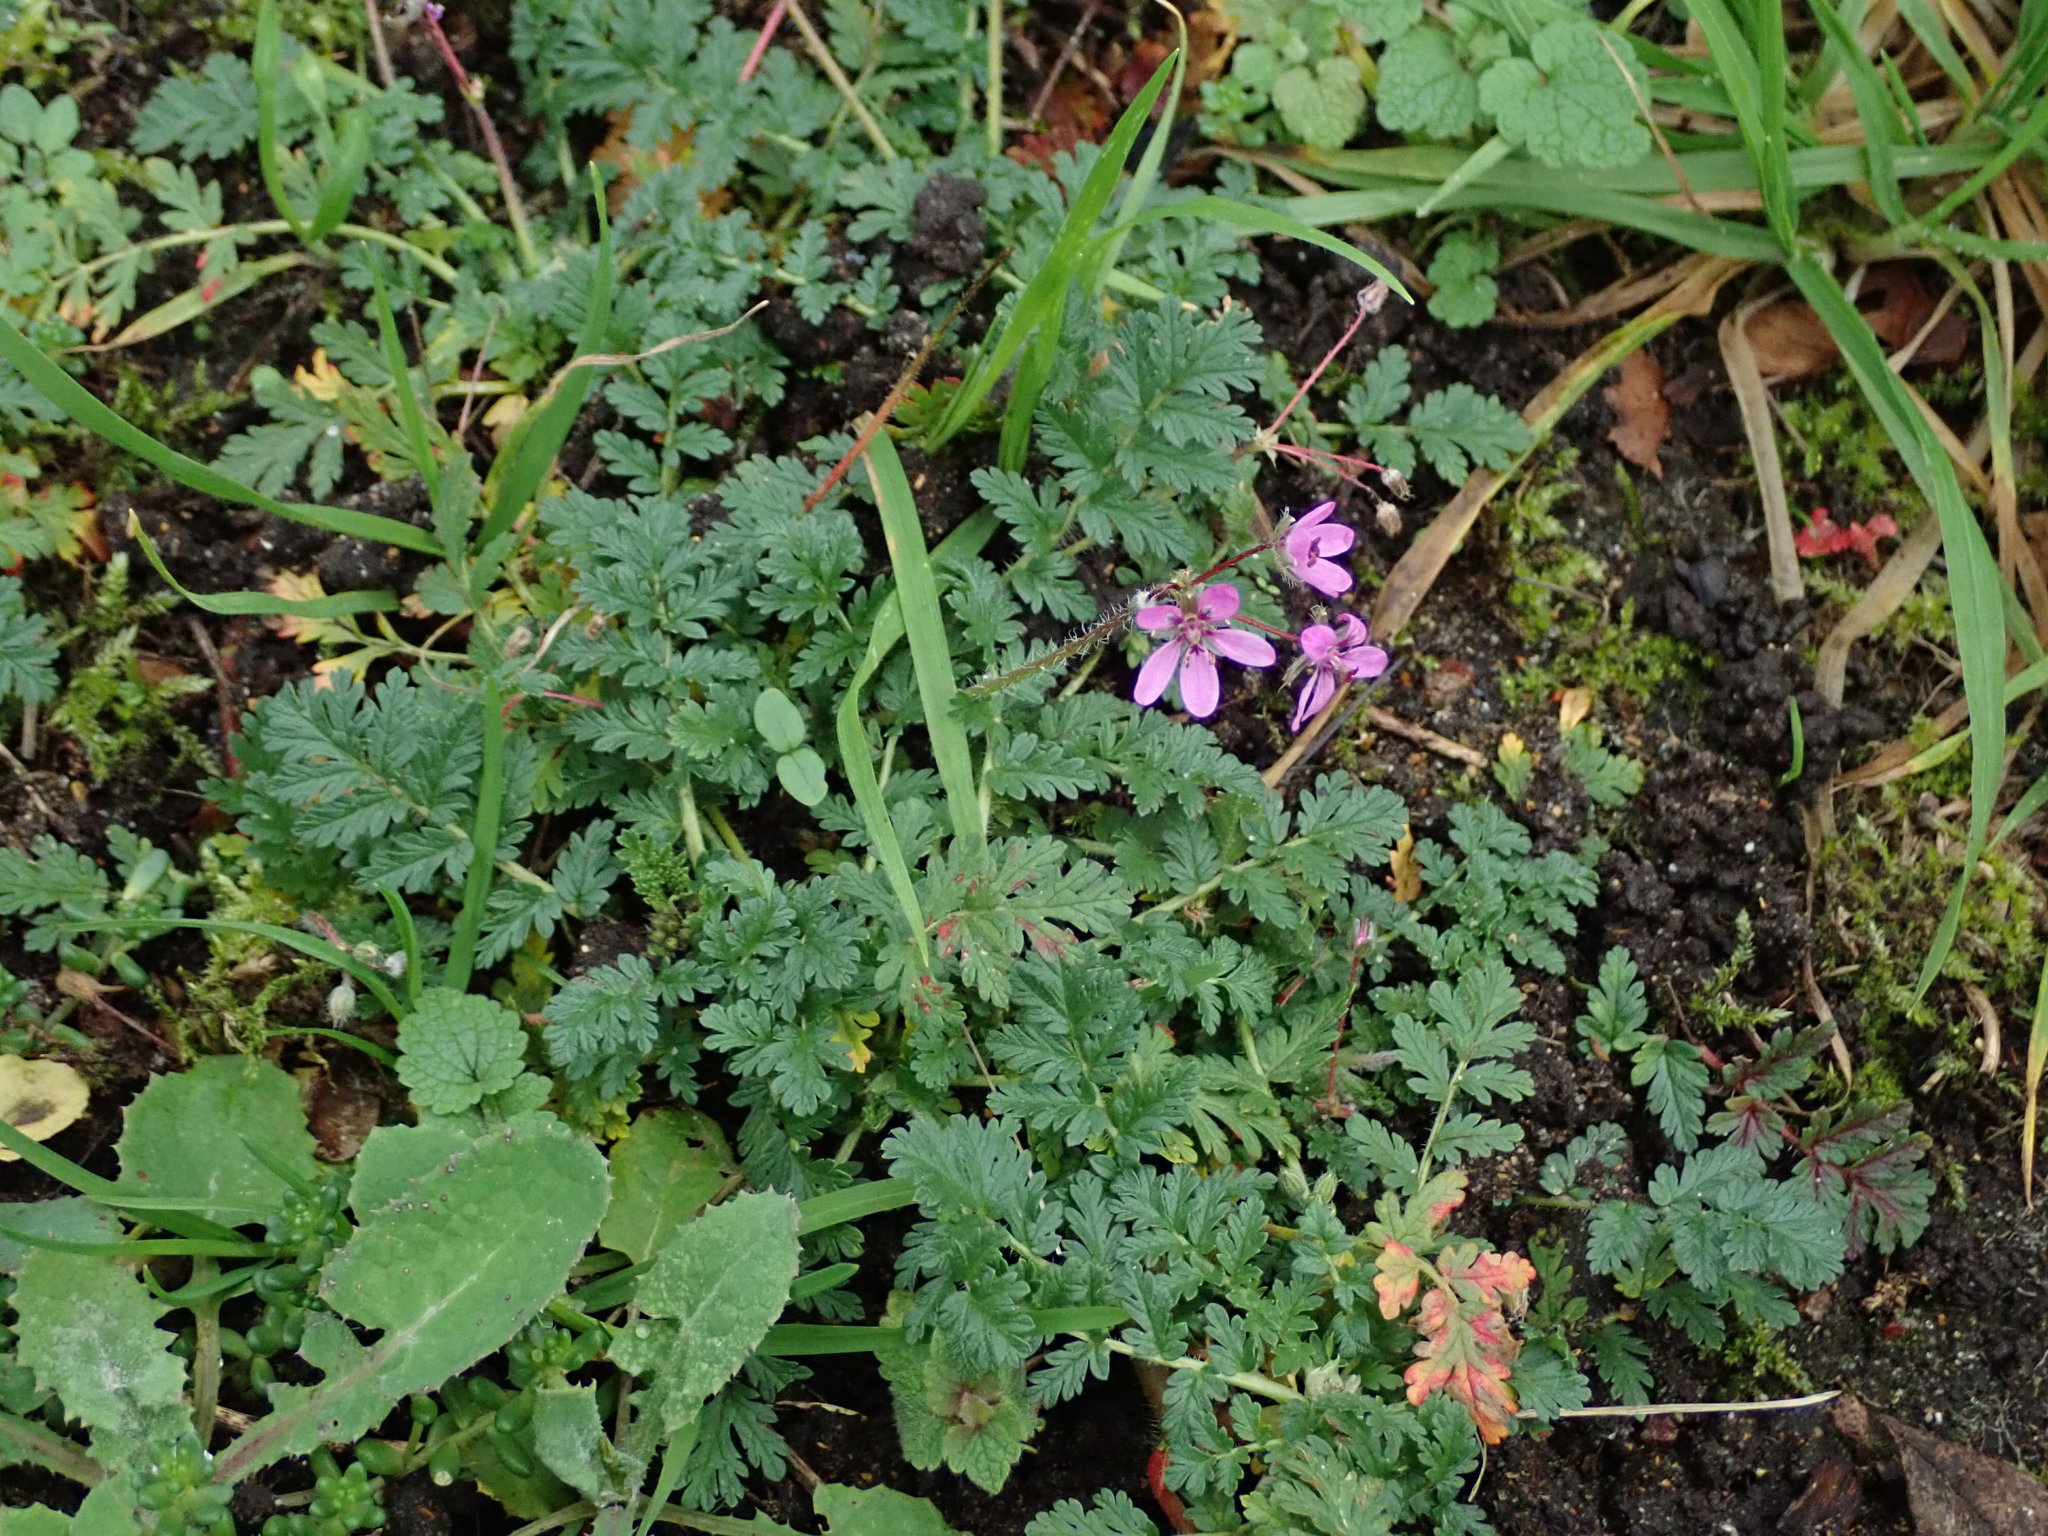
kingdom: Plantae
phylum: Tracheophyta
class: Magnoliopsida
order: Geraniales
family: Geraniaceae
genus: Erodium
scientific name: Erodium cicutarium
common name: Common stork's-bill
